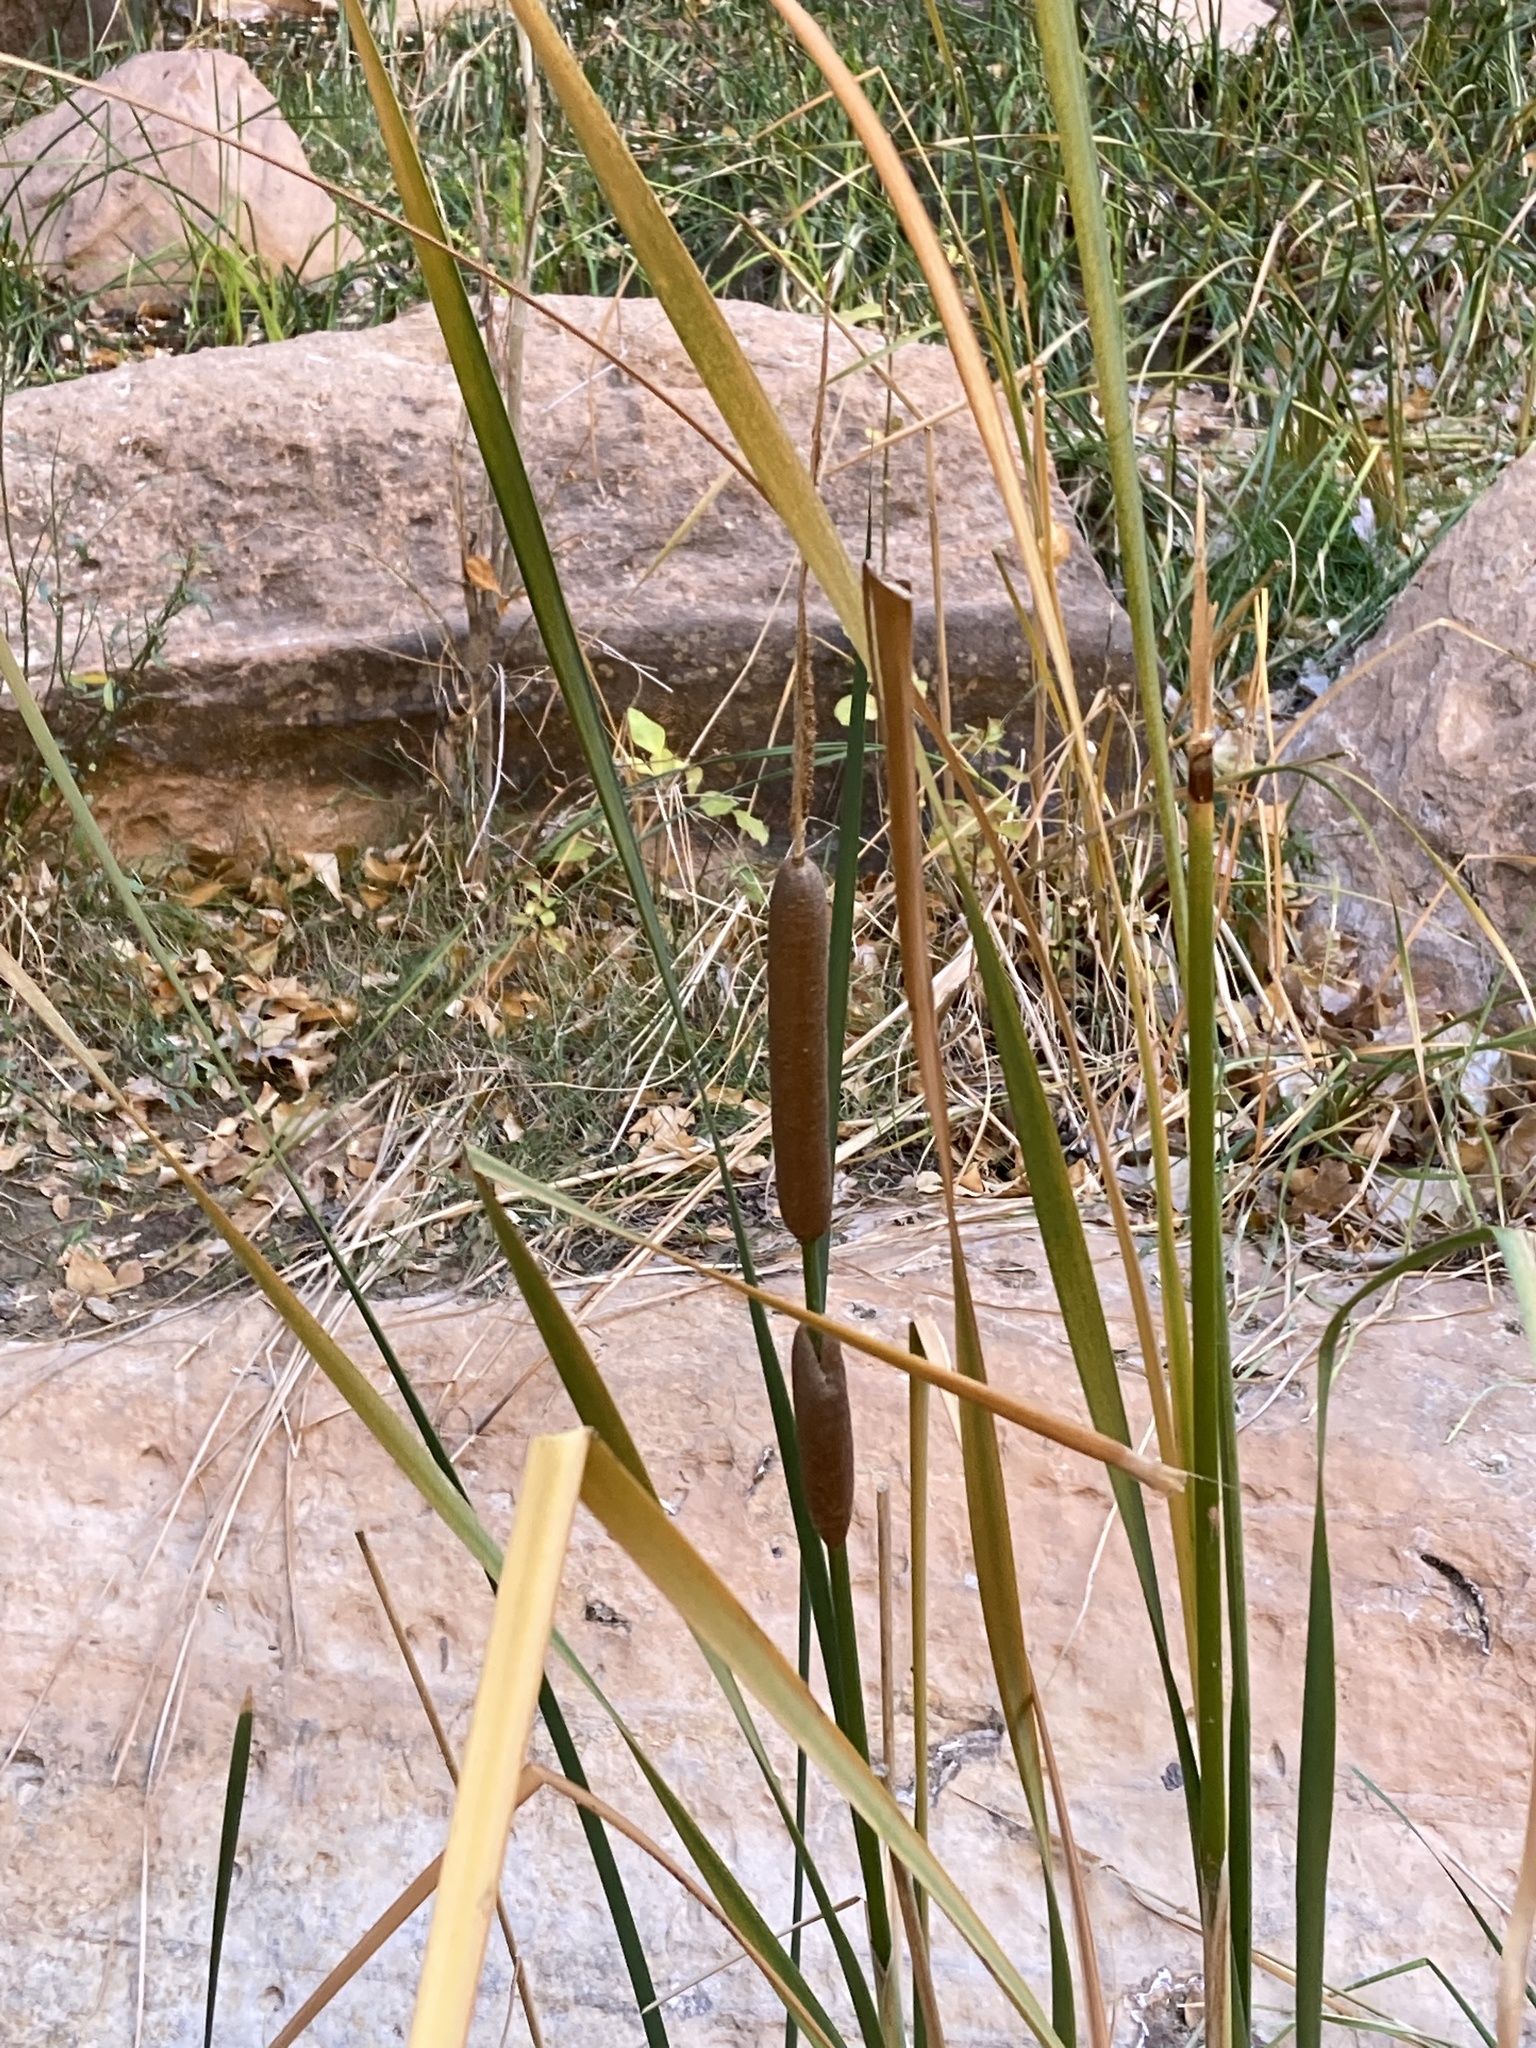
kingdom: Plantae
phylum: Tracheophyta
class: Liliopsida
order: Poales
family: Typhaceae
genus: Typha
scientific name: Typha angustifolia
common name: Lesser bulrush
